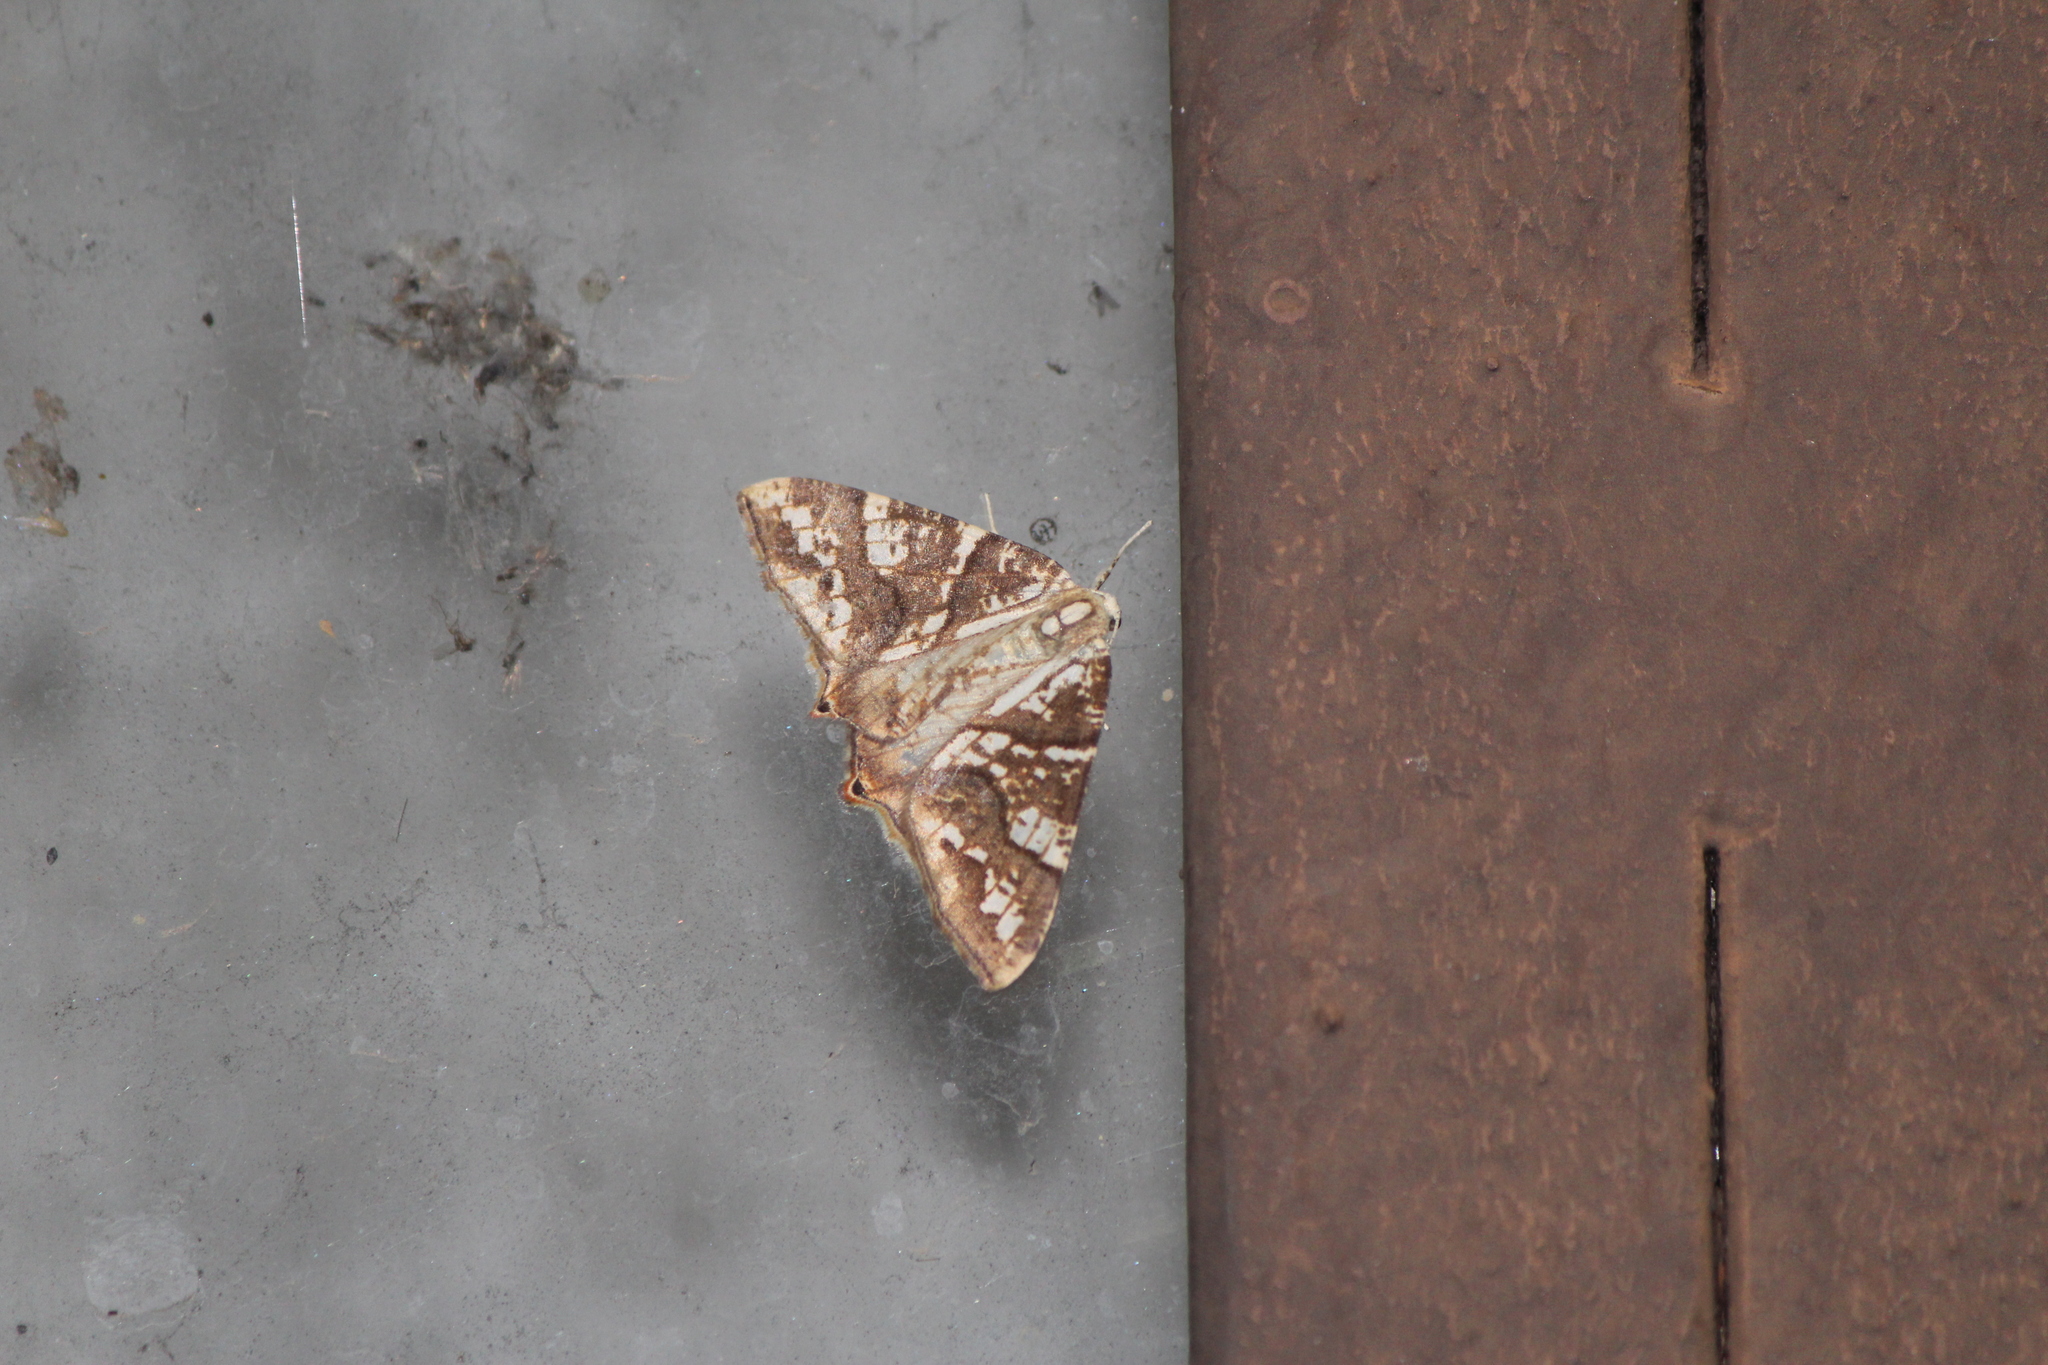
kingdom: Animalia
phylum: Arthropoda
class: Insecta
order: Lepidoptera
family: Geometridae
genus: Rindgeria
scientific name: Rindgeria ornata
